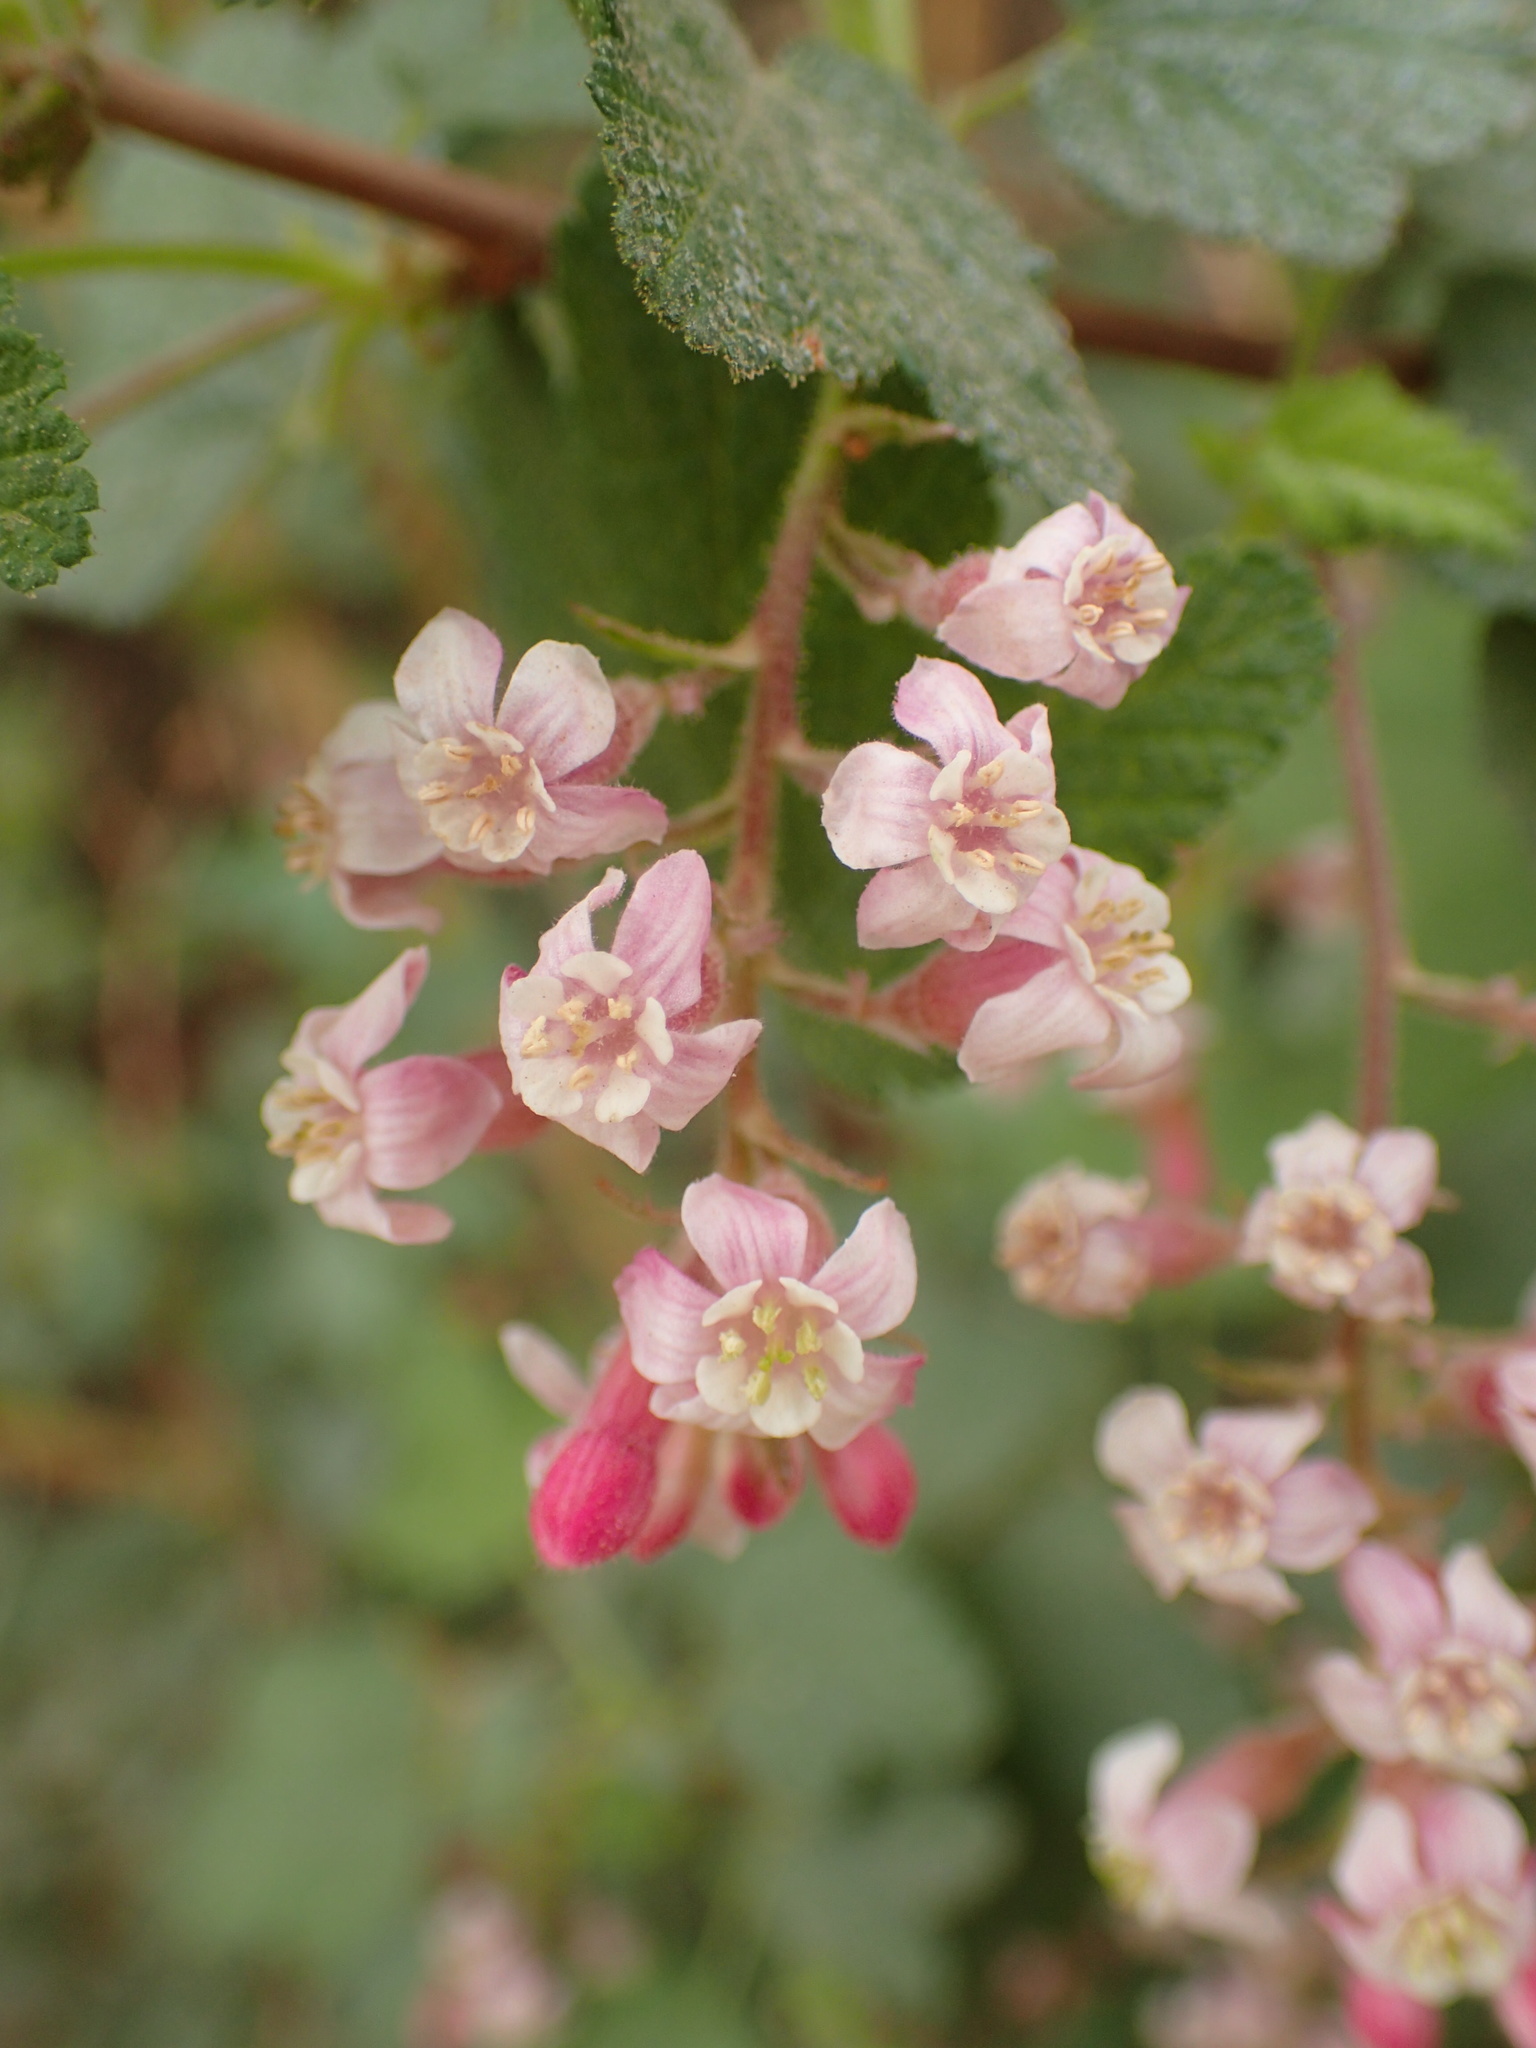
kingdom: Plantae
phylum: Tracheophyta
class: Magnoliopsida
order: Saxifragales
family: Grossulariaceae
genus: Ribes
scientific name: Ribes malvaceum
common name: Chaparral currant
